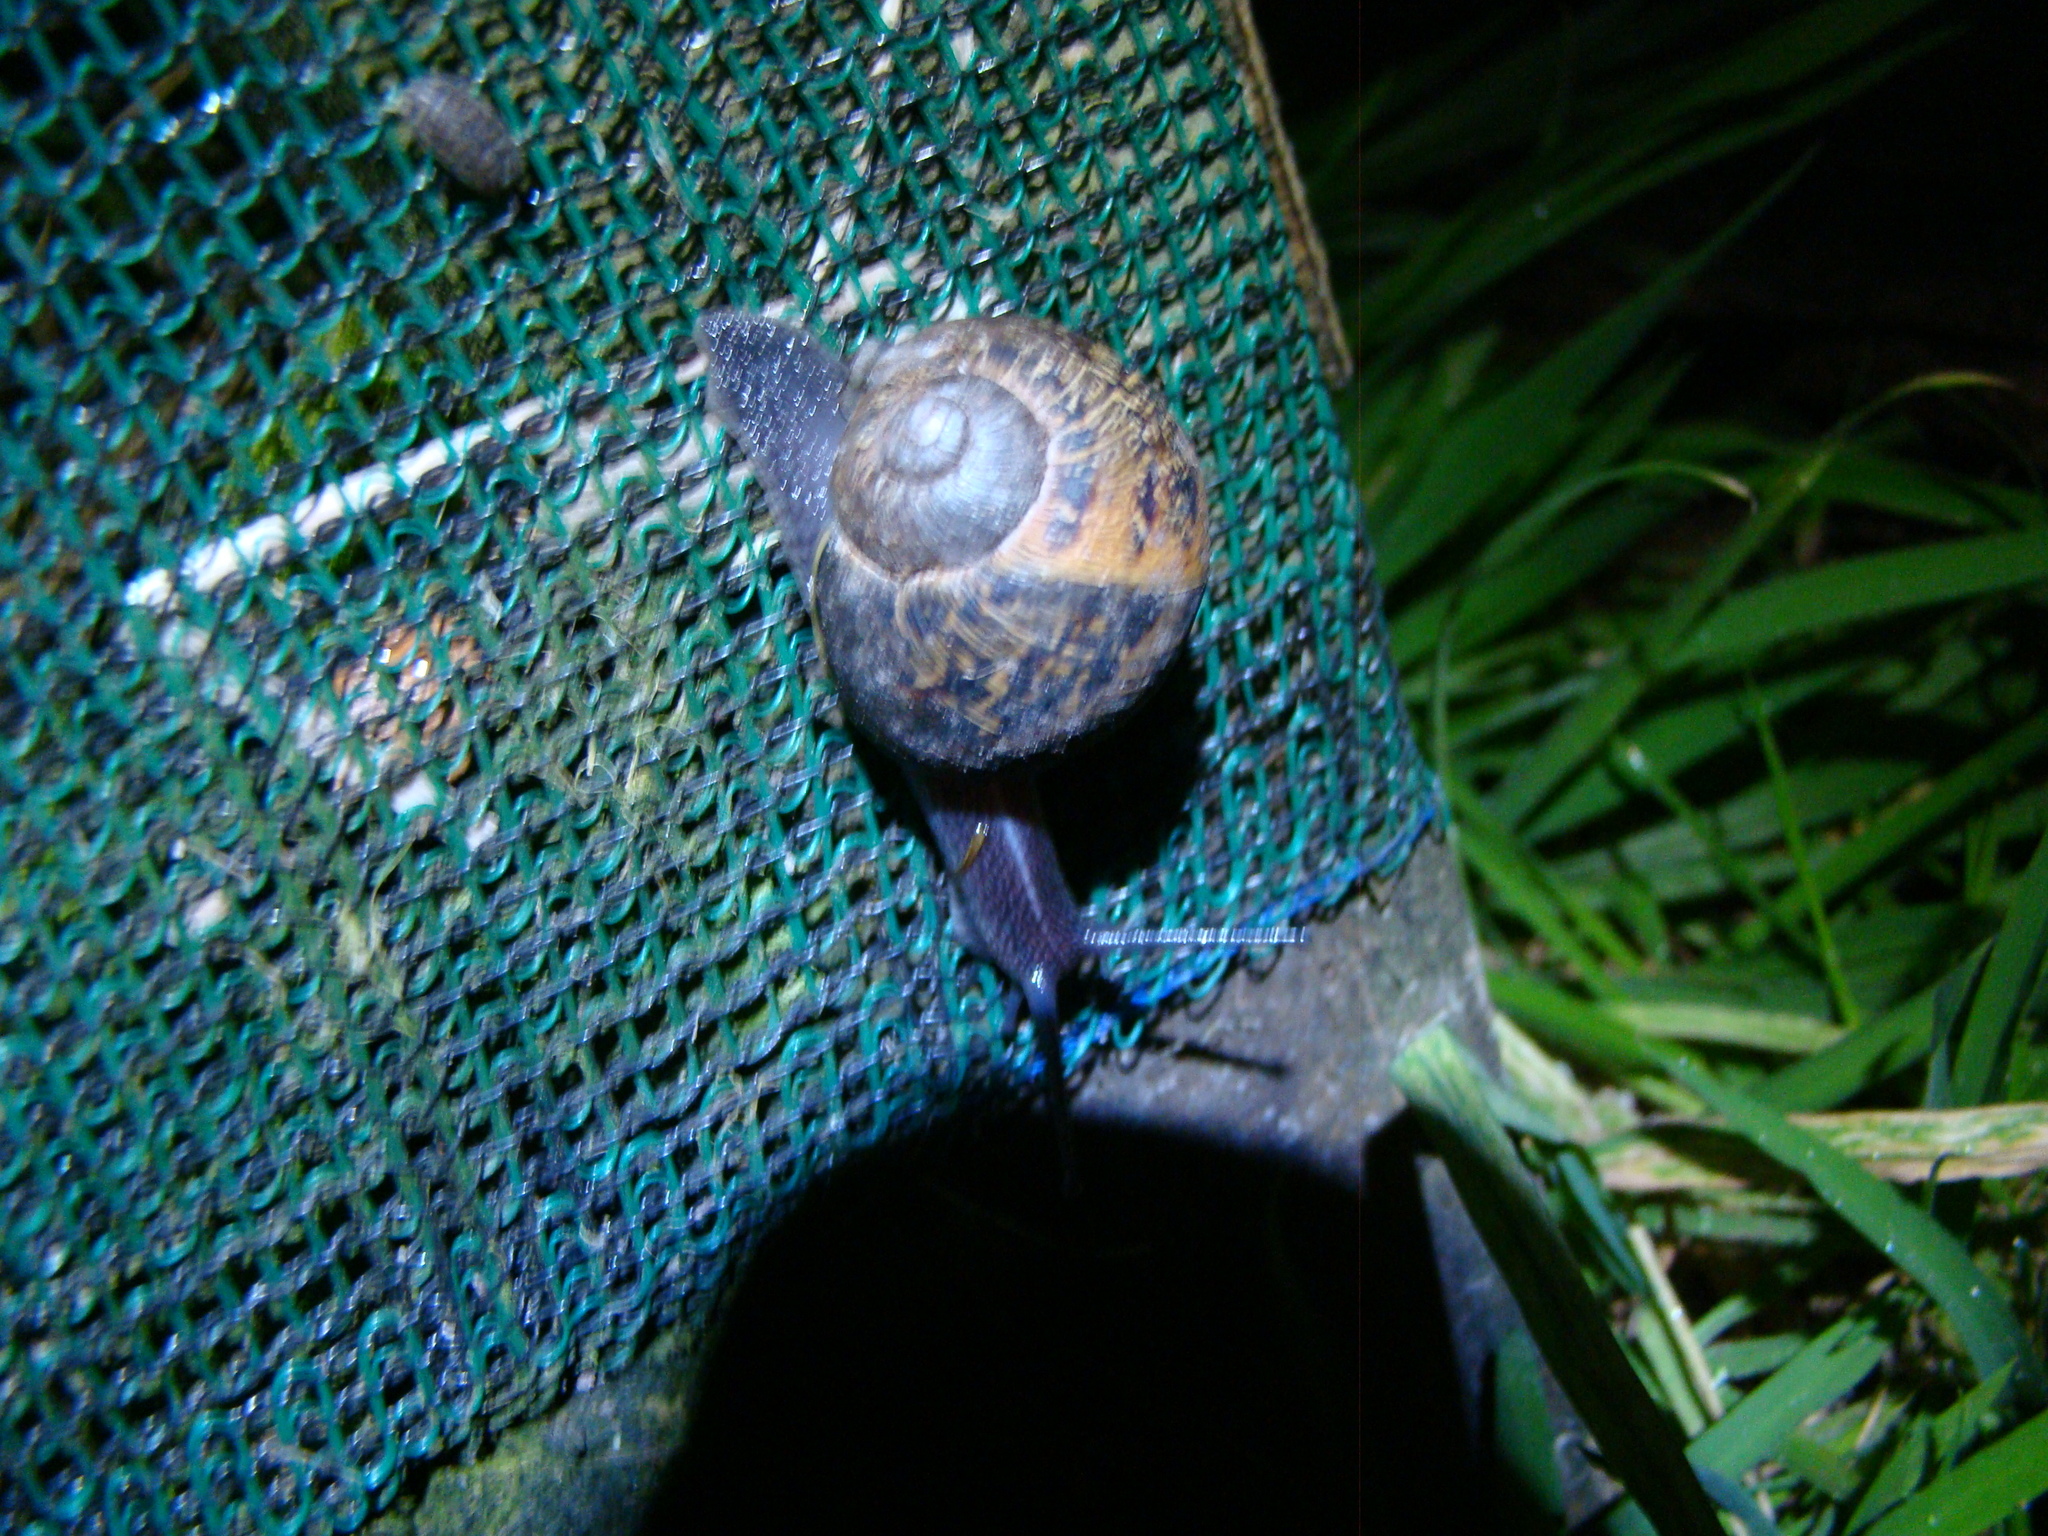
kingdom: Animalia
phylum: Mollusca
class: Gastropoda
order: Stylommatophora
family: Helicidae
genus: Cornu
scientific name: Cornu aspersum
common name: Brown garden snail
